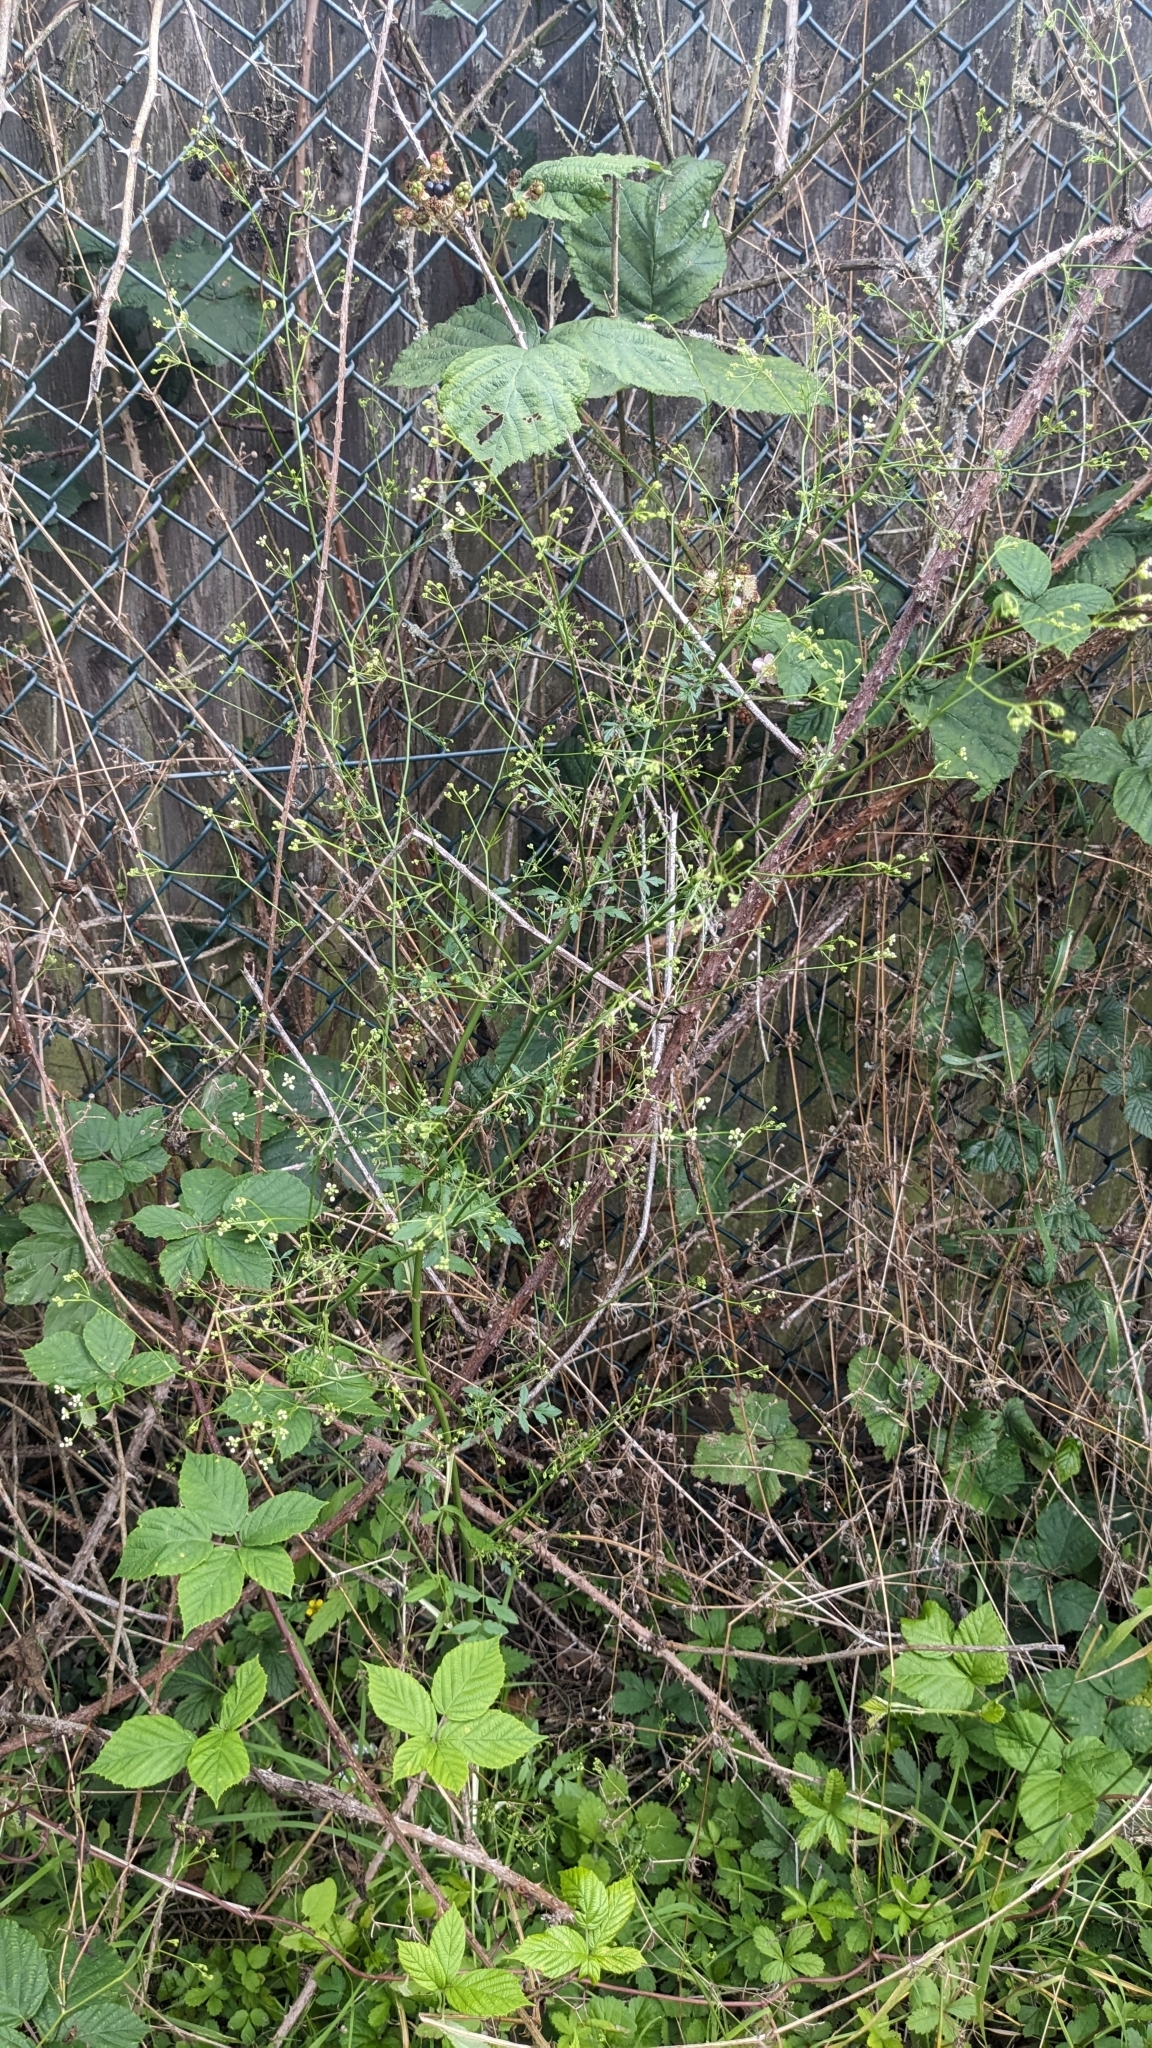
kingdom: Plantae
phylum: Tracheophyta
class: Magnoliopsida
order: Apiales
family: Apiaceae
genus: Sison
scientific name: Sison amomum
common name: Stone-parsley
